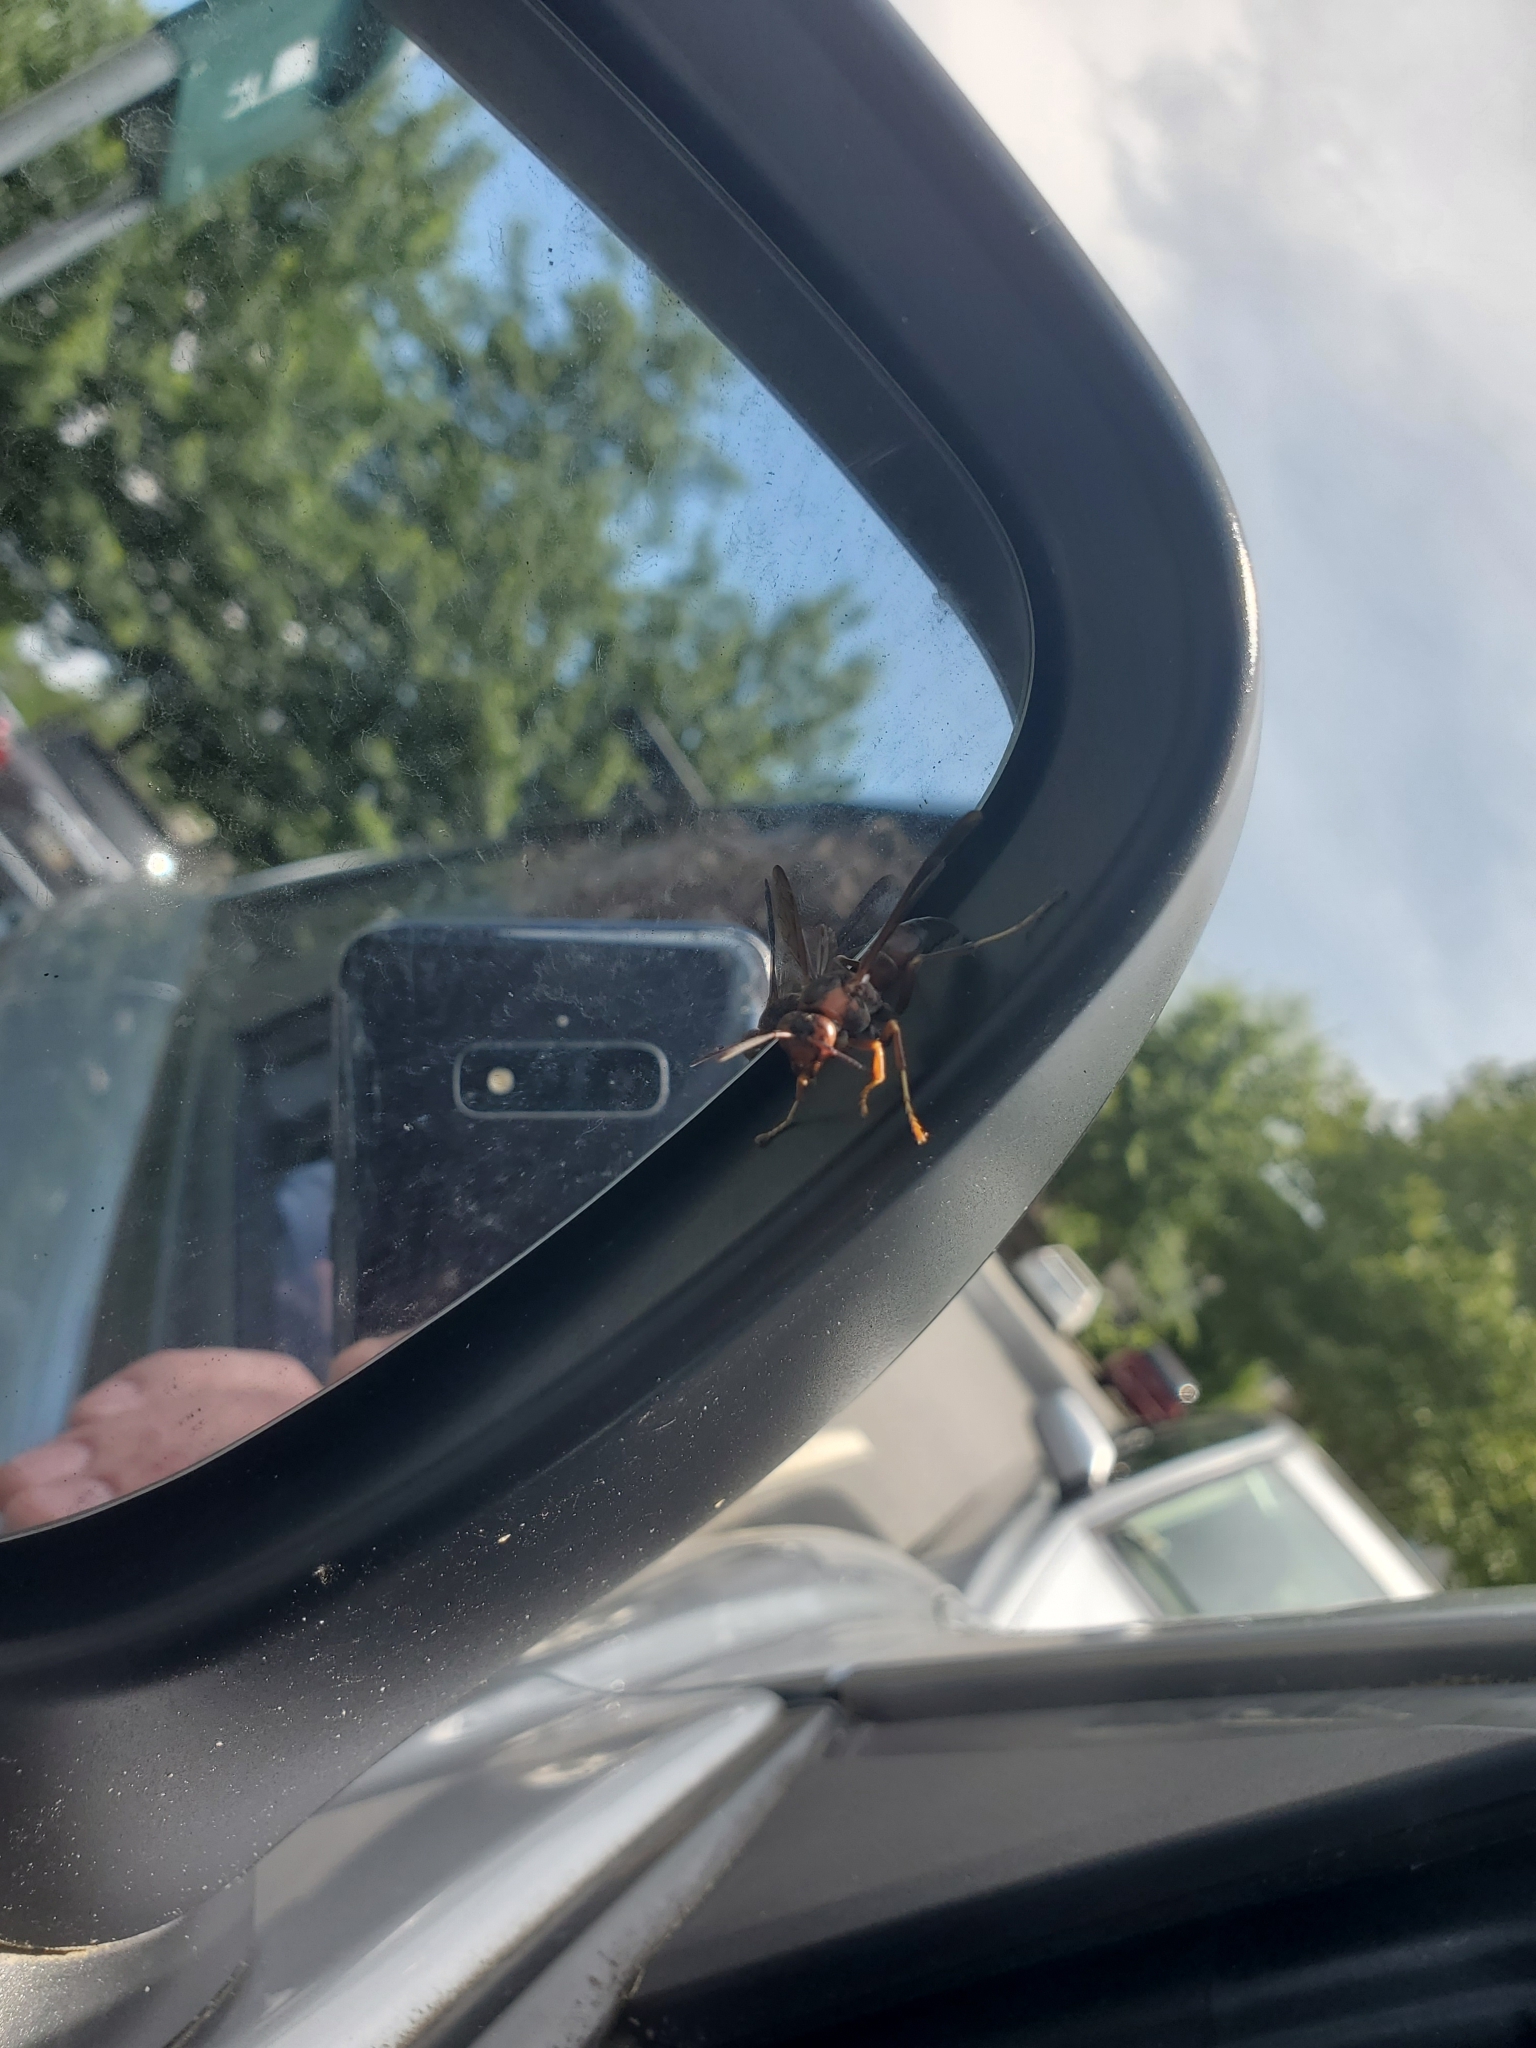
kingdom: Animalia
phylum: Arthropoda
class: Insecta
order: Hymenoptera
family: Vespidae
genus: Fuscopolistes
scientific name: Fuscopolistes
